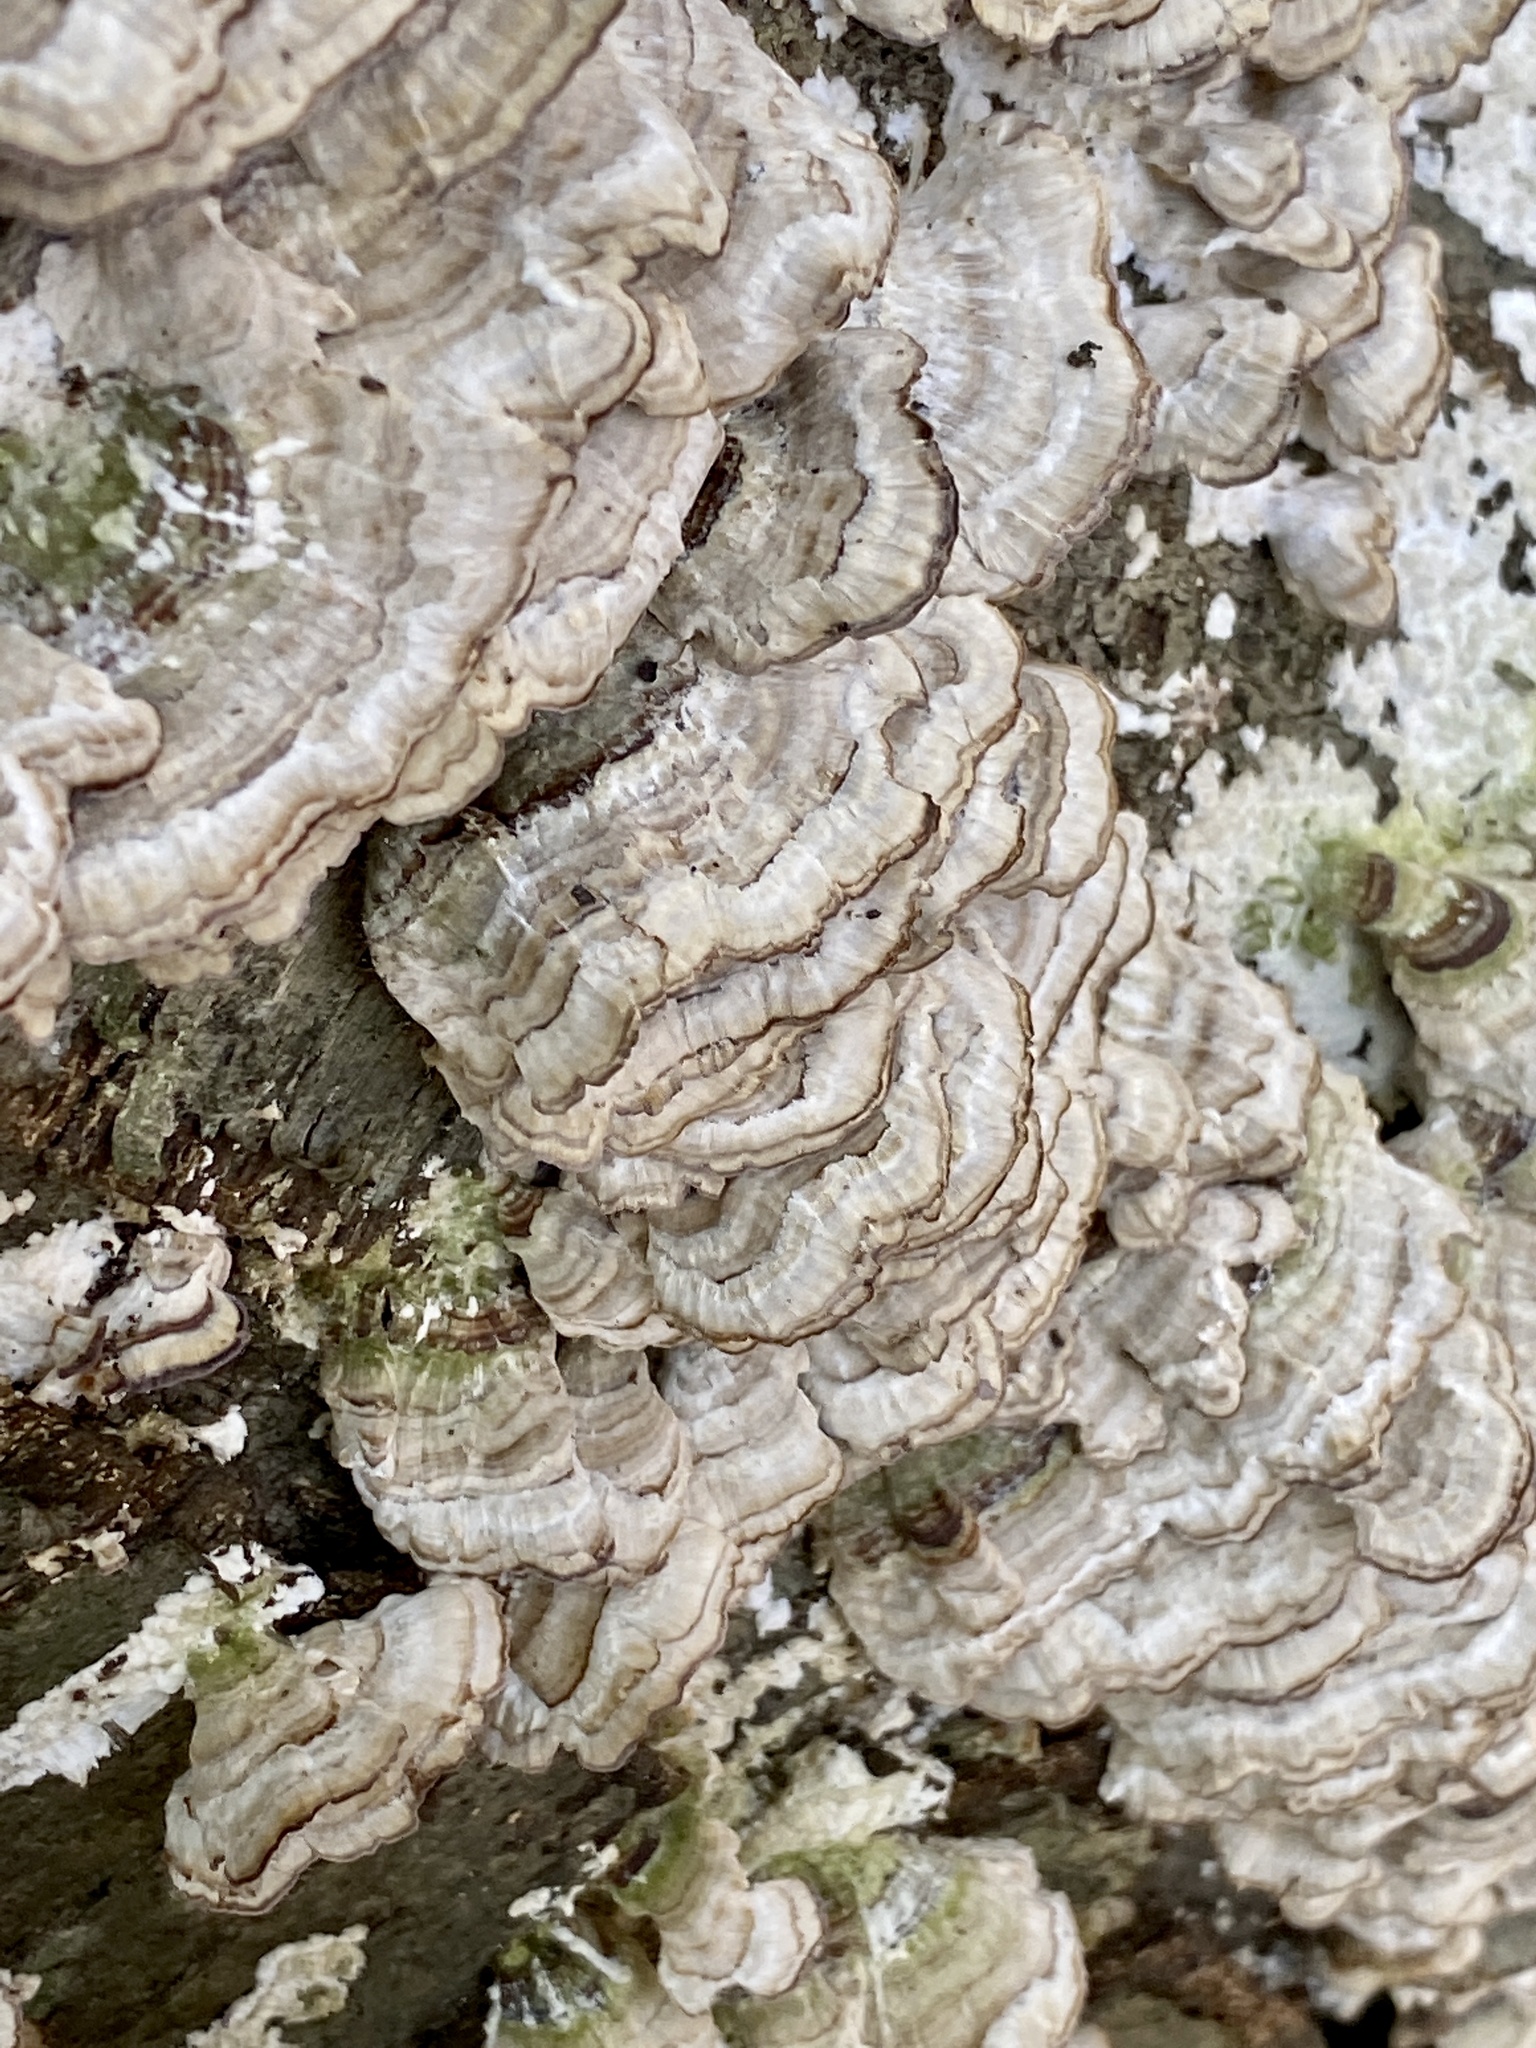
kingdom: Fungi
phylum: Basidiomycota
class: Agaricomycetes
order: Hymenochaetales
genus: Trichaptum
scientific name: Trichaptum biforme
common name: Violet-toothed polypore
